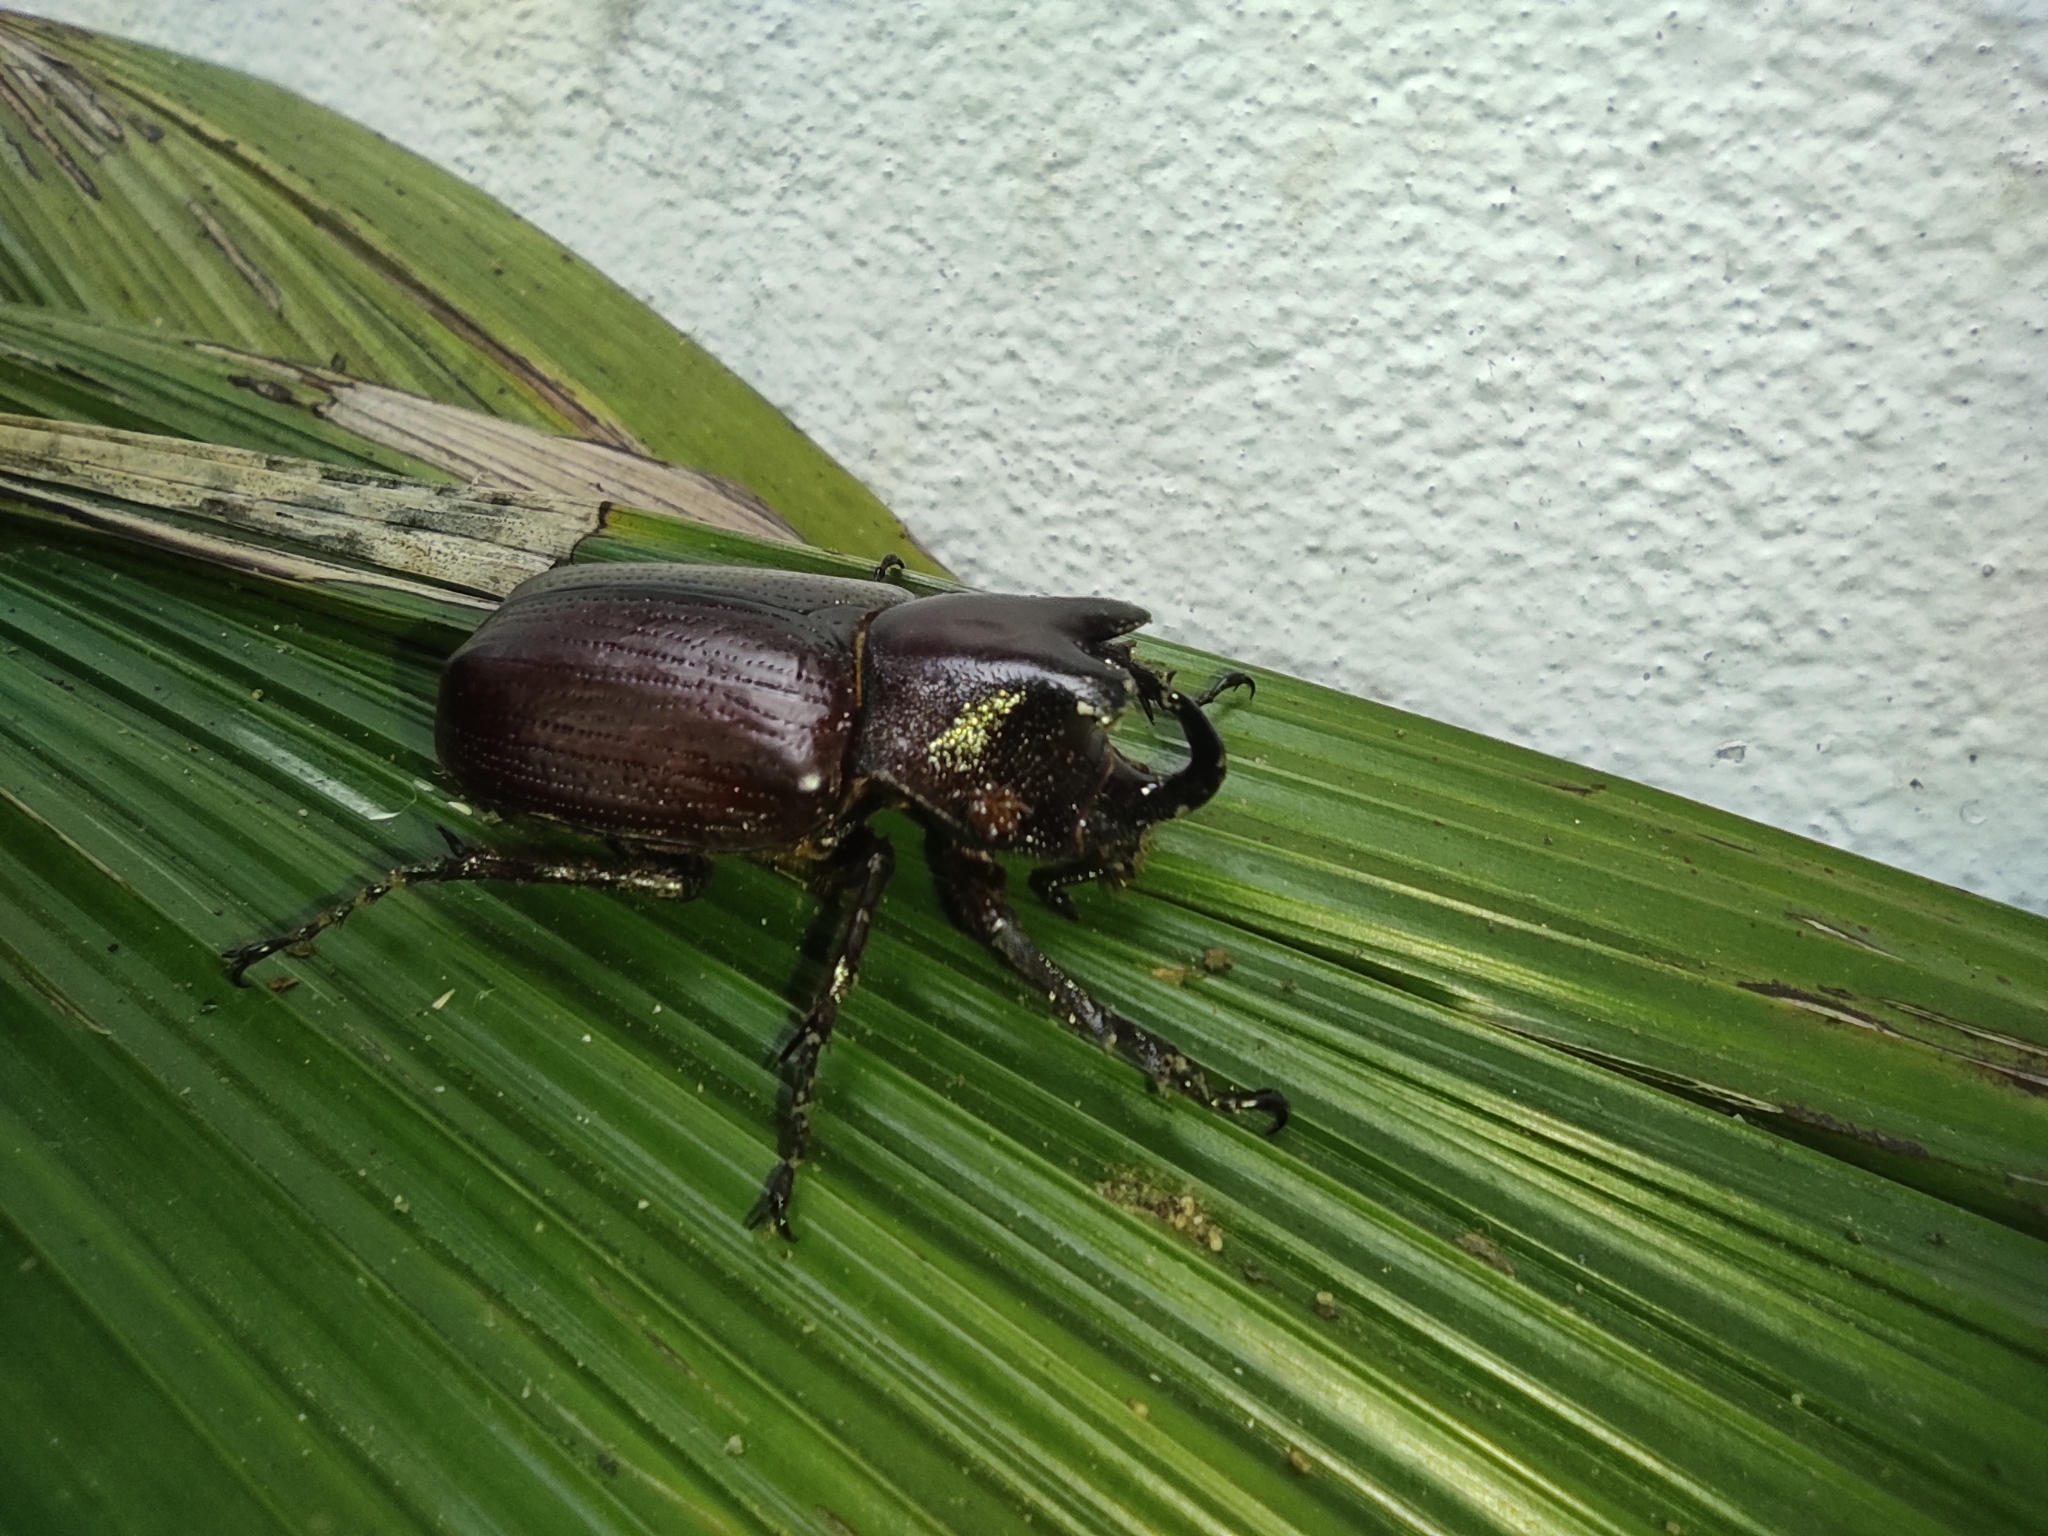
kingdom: Animalia
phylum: Arthropoda
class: Insecta
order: Coleoptera
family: Scarabaeidae
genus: Coelosis
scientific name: Coelosis biloba
